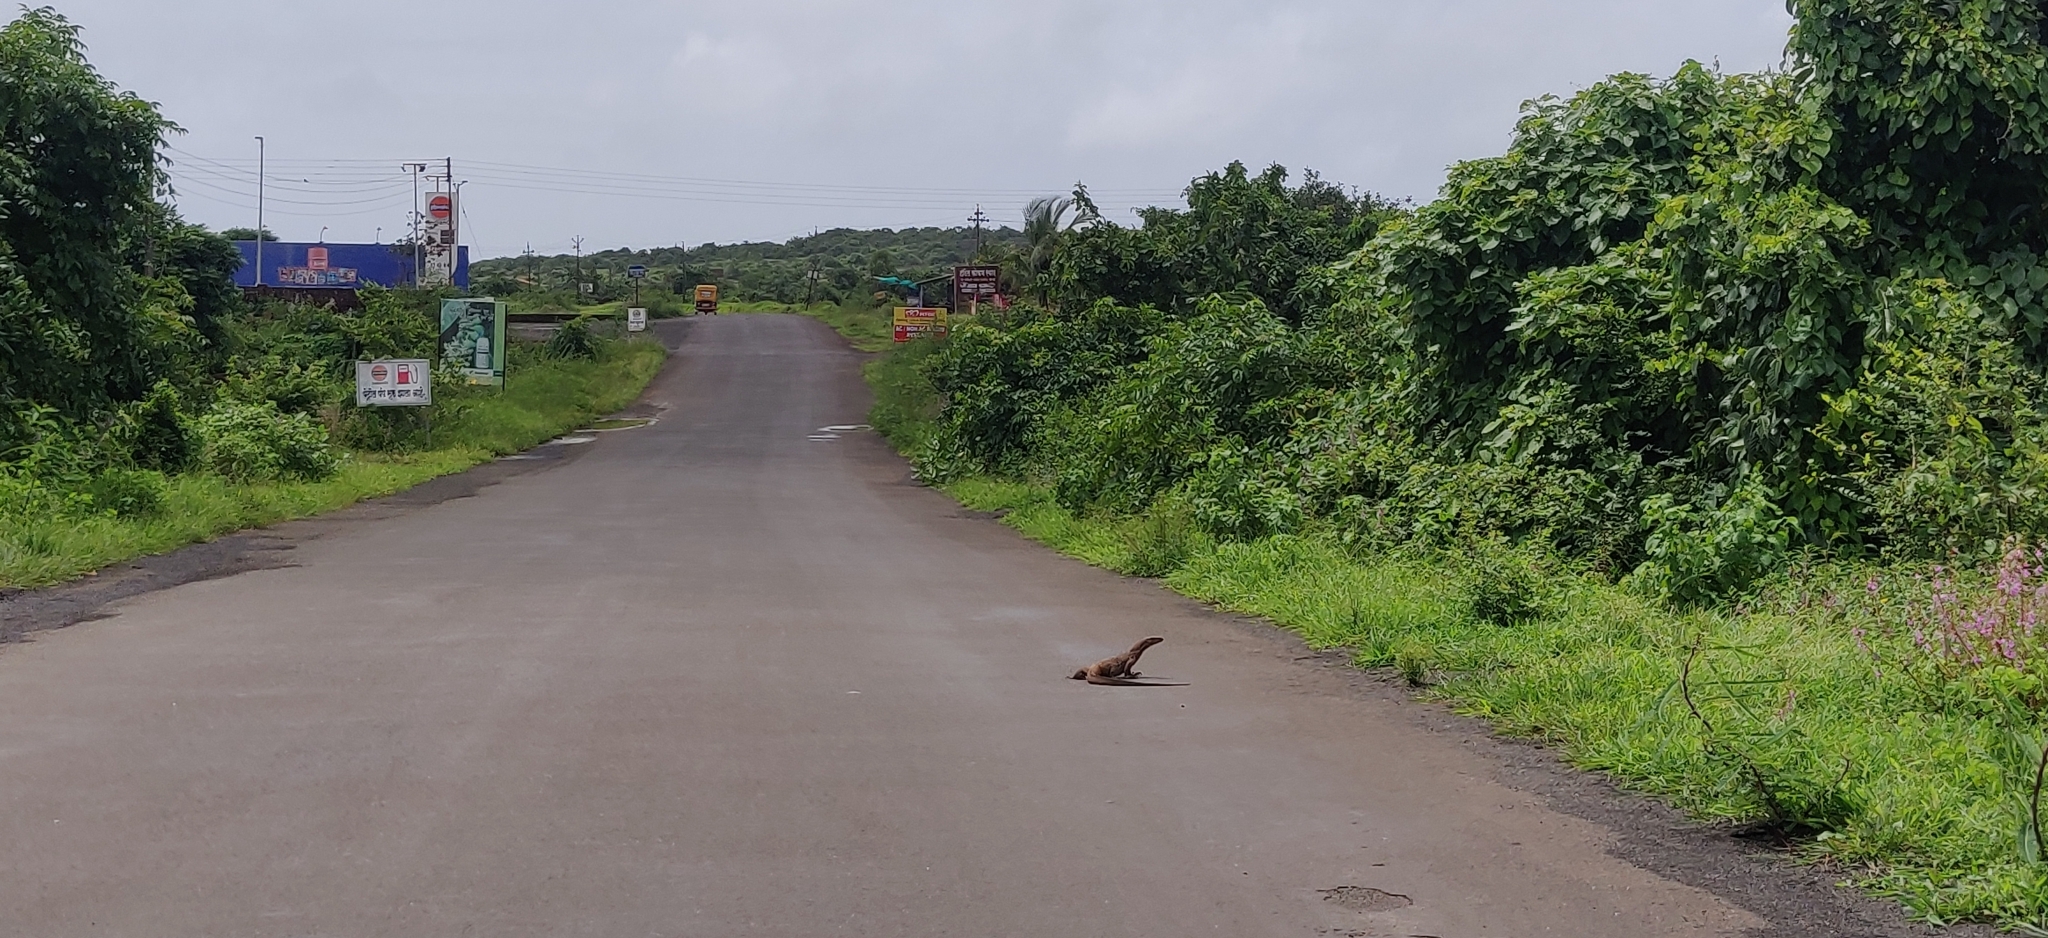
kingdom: Animalia
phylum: Chordata
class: Squamata
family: Varanidae
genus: Varanus
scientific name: Varanus bengalensis
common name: Bengal monitor
